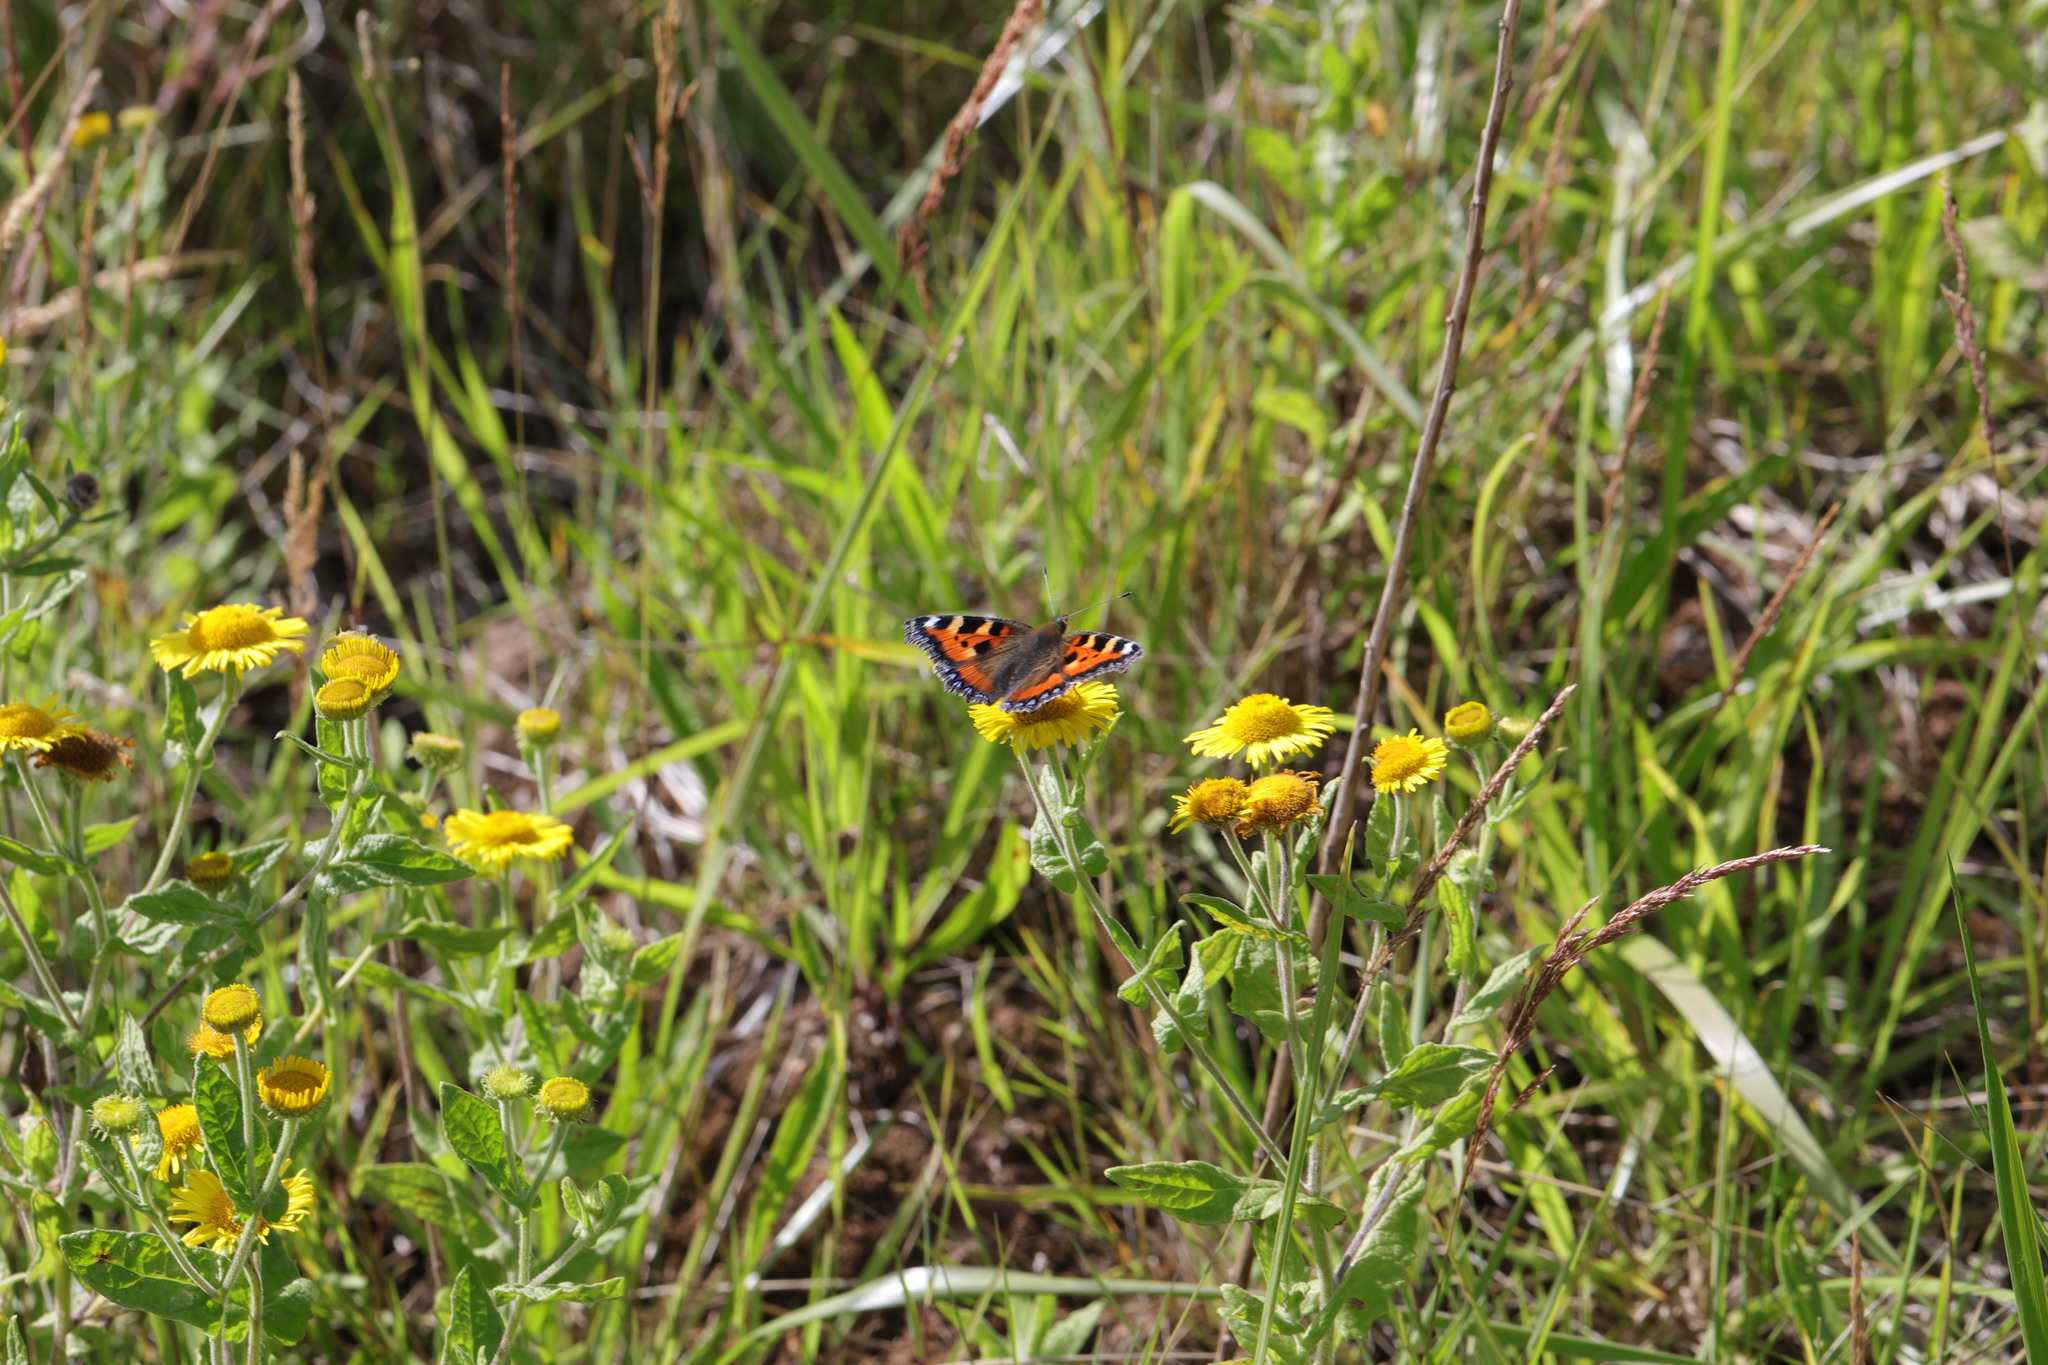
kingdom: Animalia
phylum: Arthropoda
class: Insecta
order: Lepidoptera
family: Nymphalidae
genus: Aglais
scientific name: Aglais urticae
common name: Small tortoiseshell
